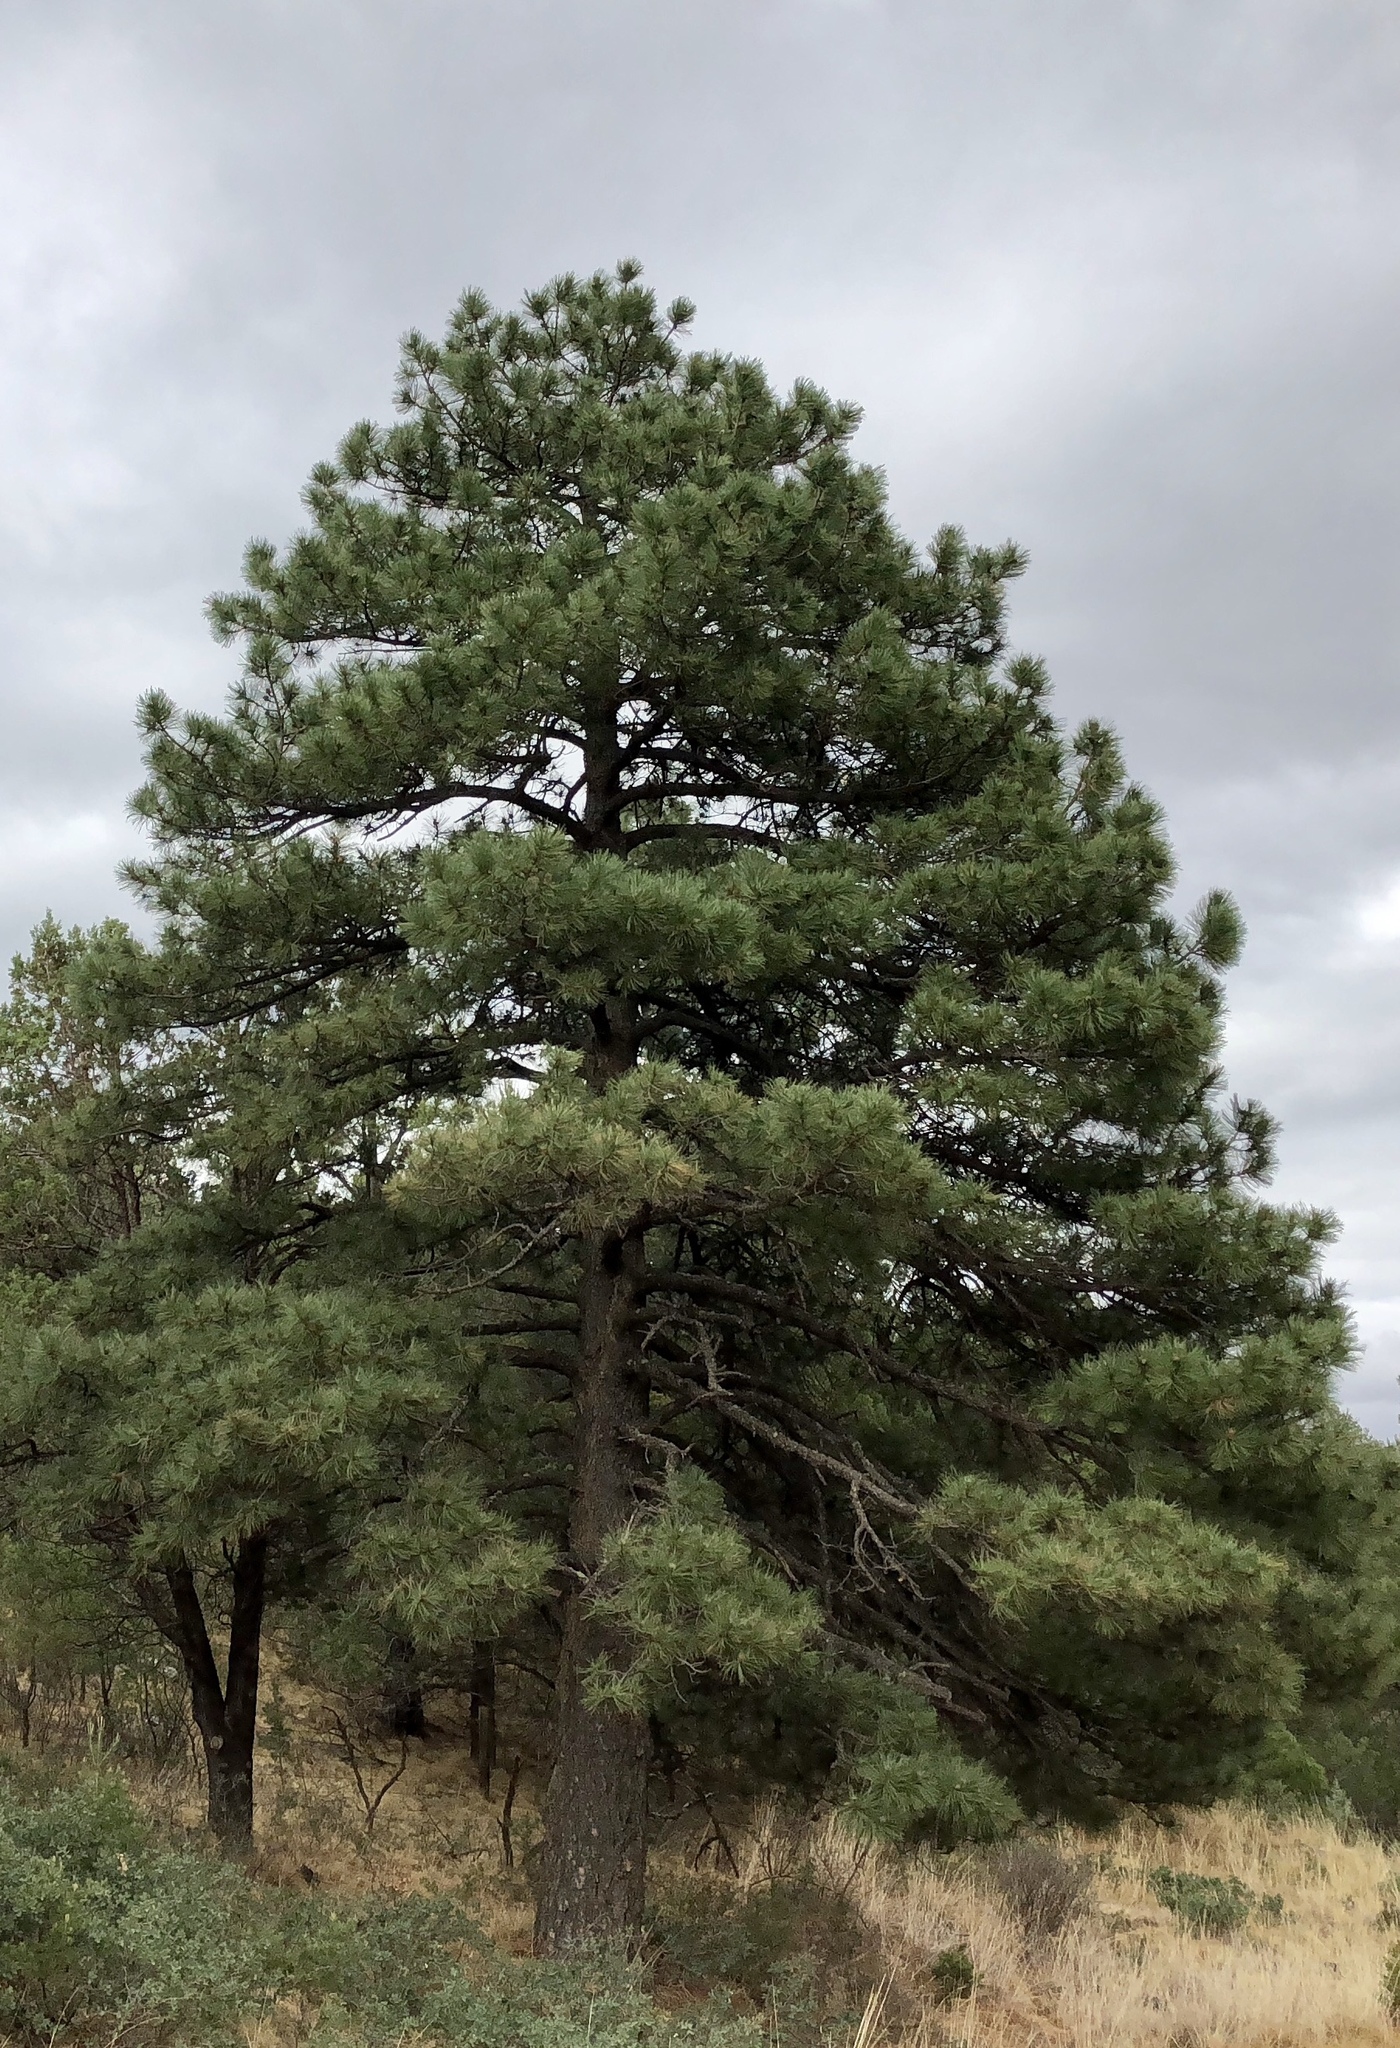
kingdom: Plantae
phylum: Tracheophyta
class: Pinopsida
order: Pinales
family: Pinaceae
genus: Pinus
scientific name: Pinus ponderosa
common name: Western yellow-pine
